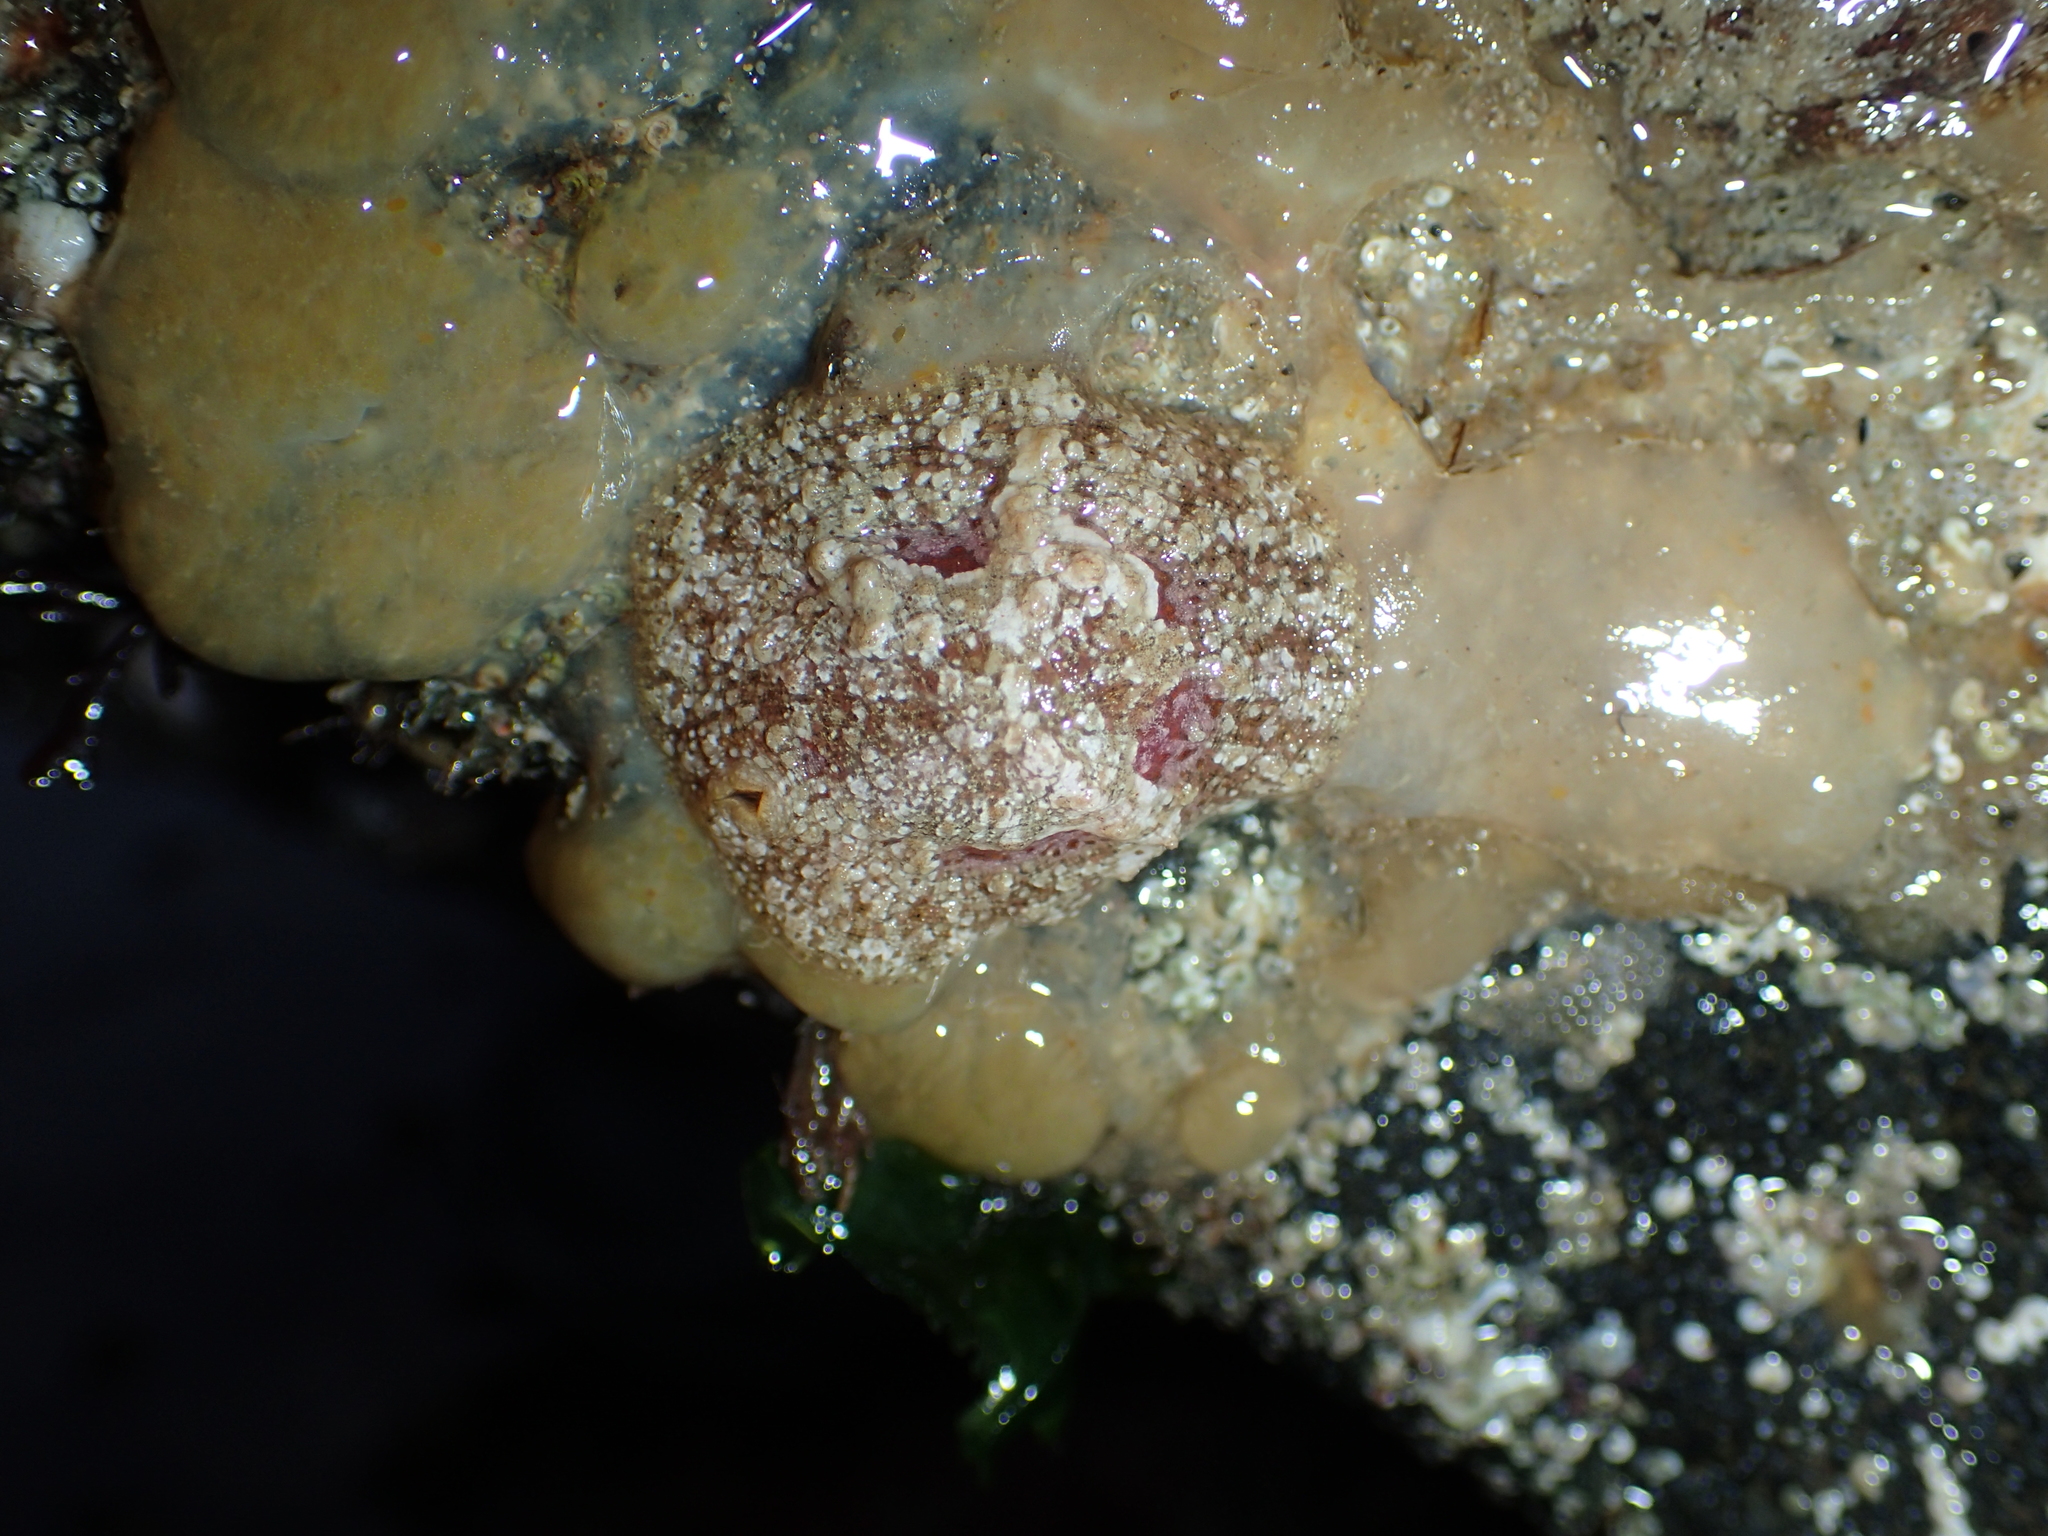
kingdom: Animalia
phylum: Mollusca
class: Gastropoda
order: Littorinimorpha
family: Velutinidae
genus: Marsenia
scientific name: Marsenia perspicua
